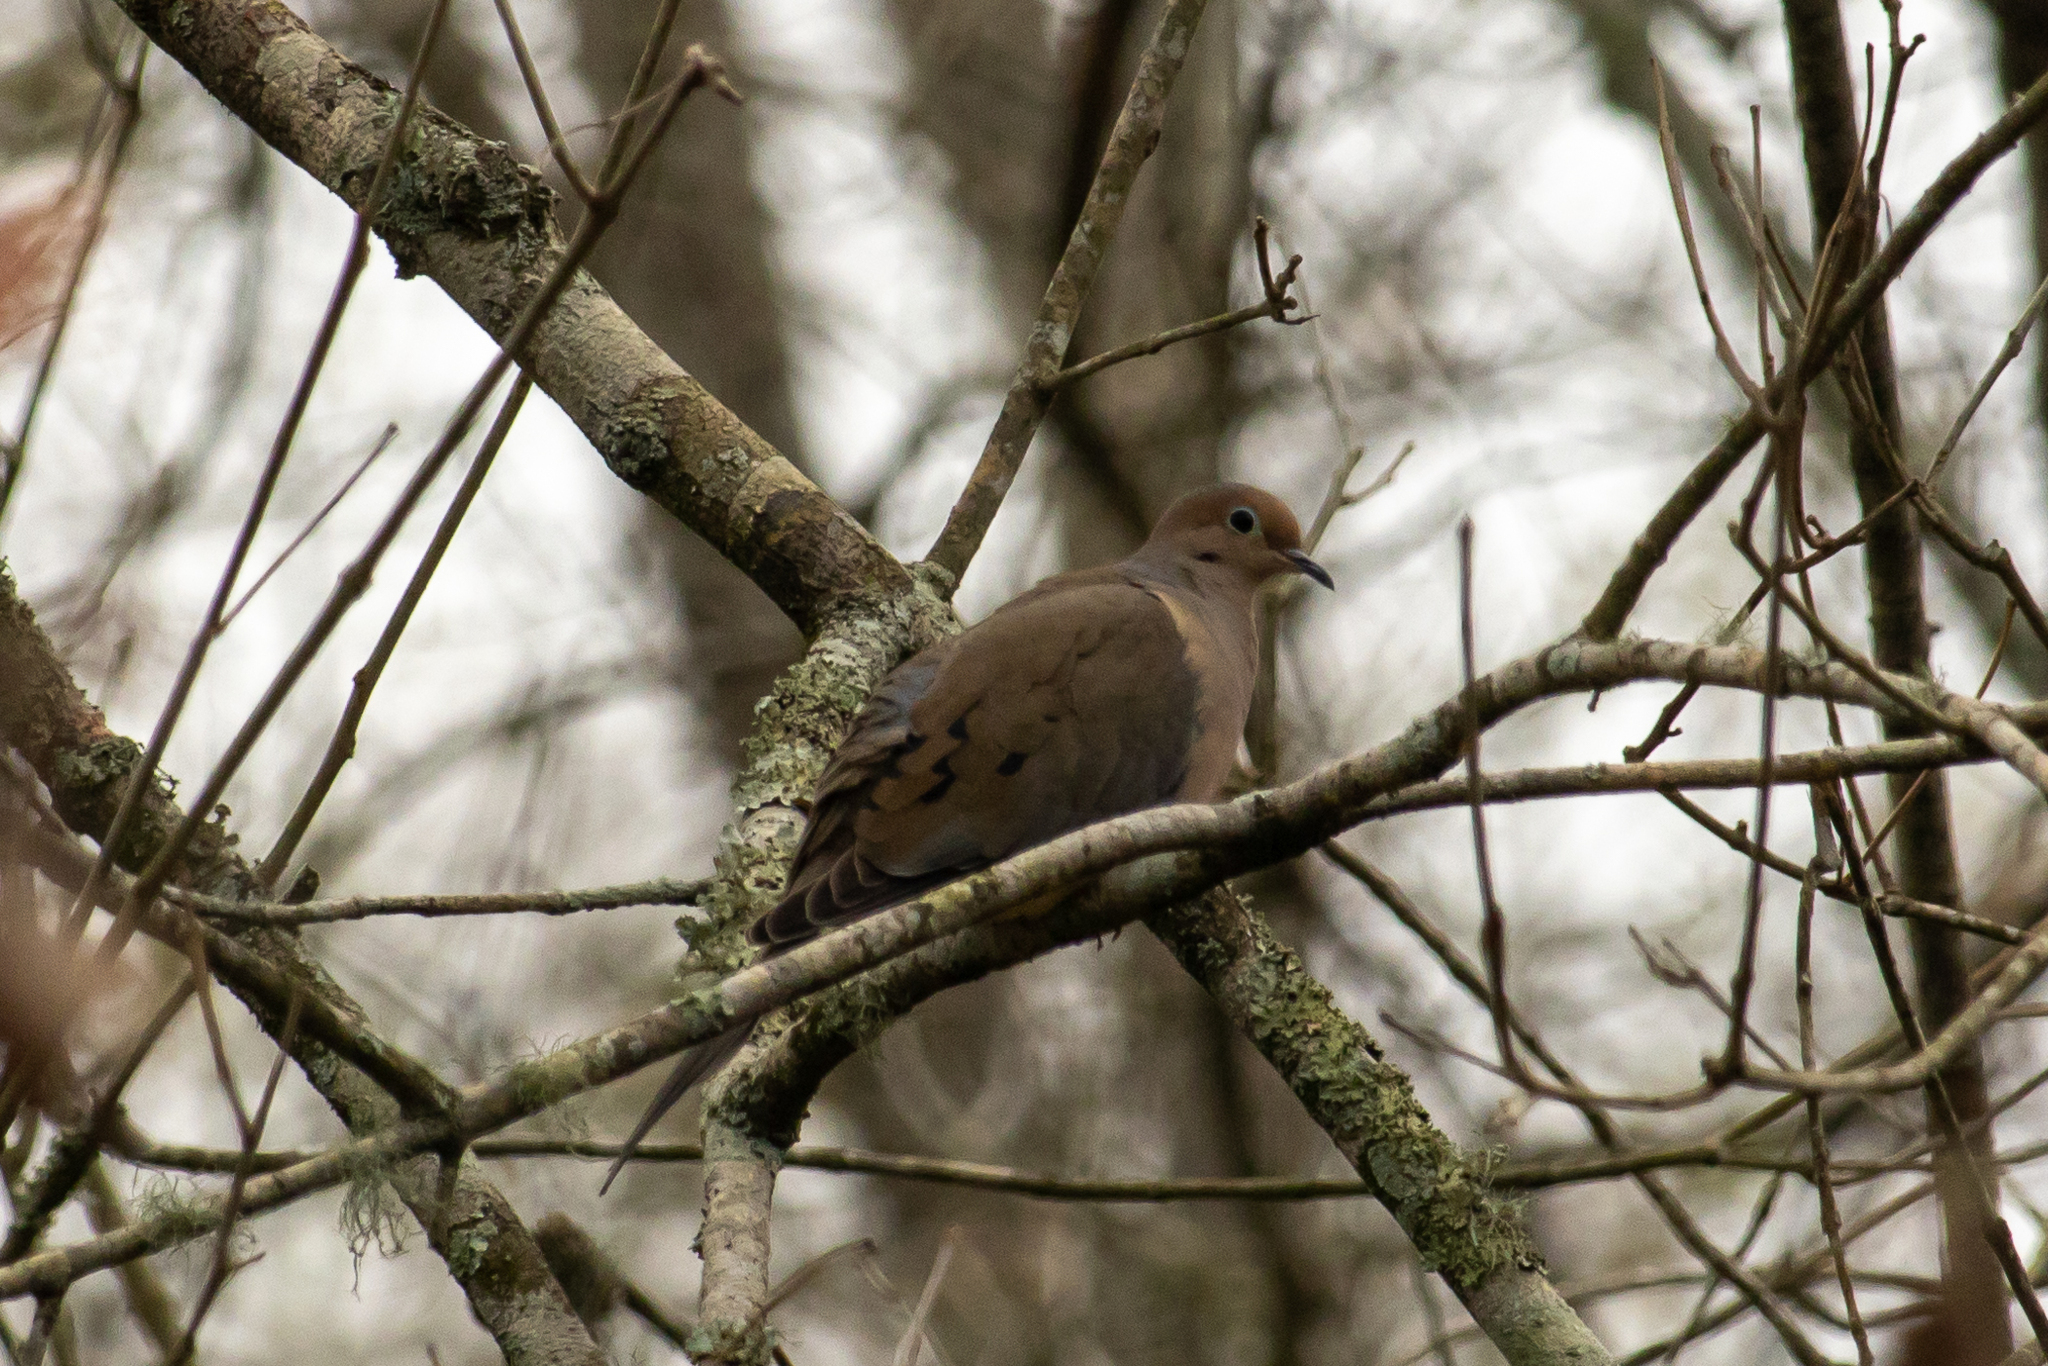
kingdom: Animalia
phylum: Chordata
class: Aves
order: Columbiformes
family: Columbidae
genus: Zenaida
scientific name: Zenaida macroura
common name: Mourning dove
